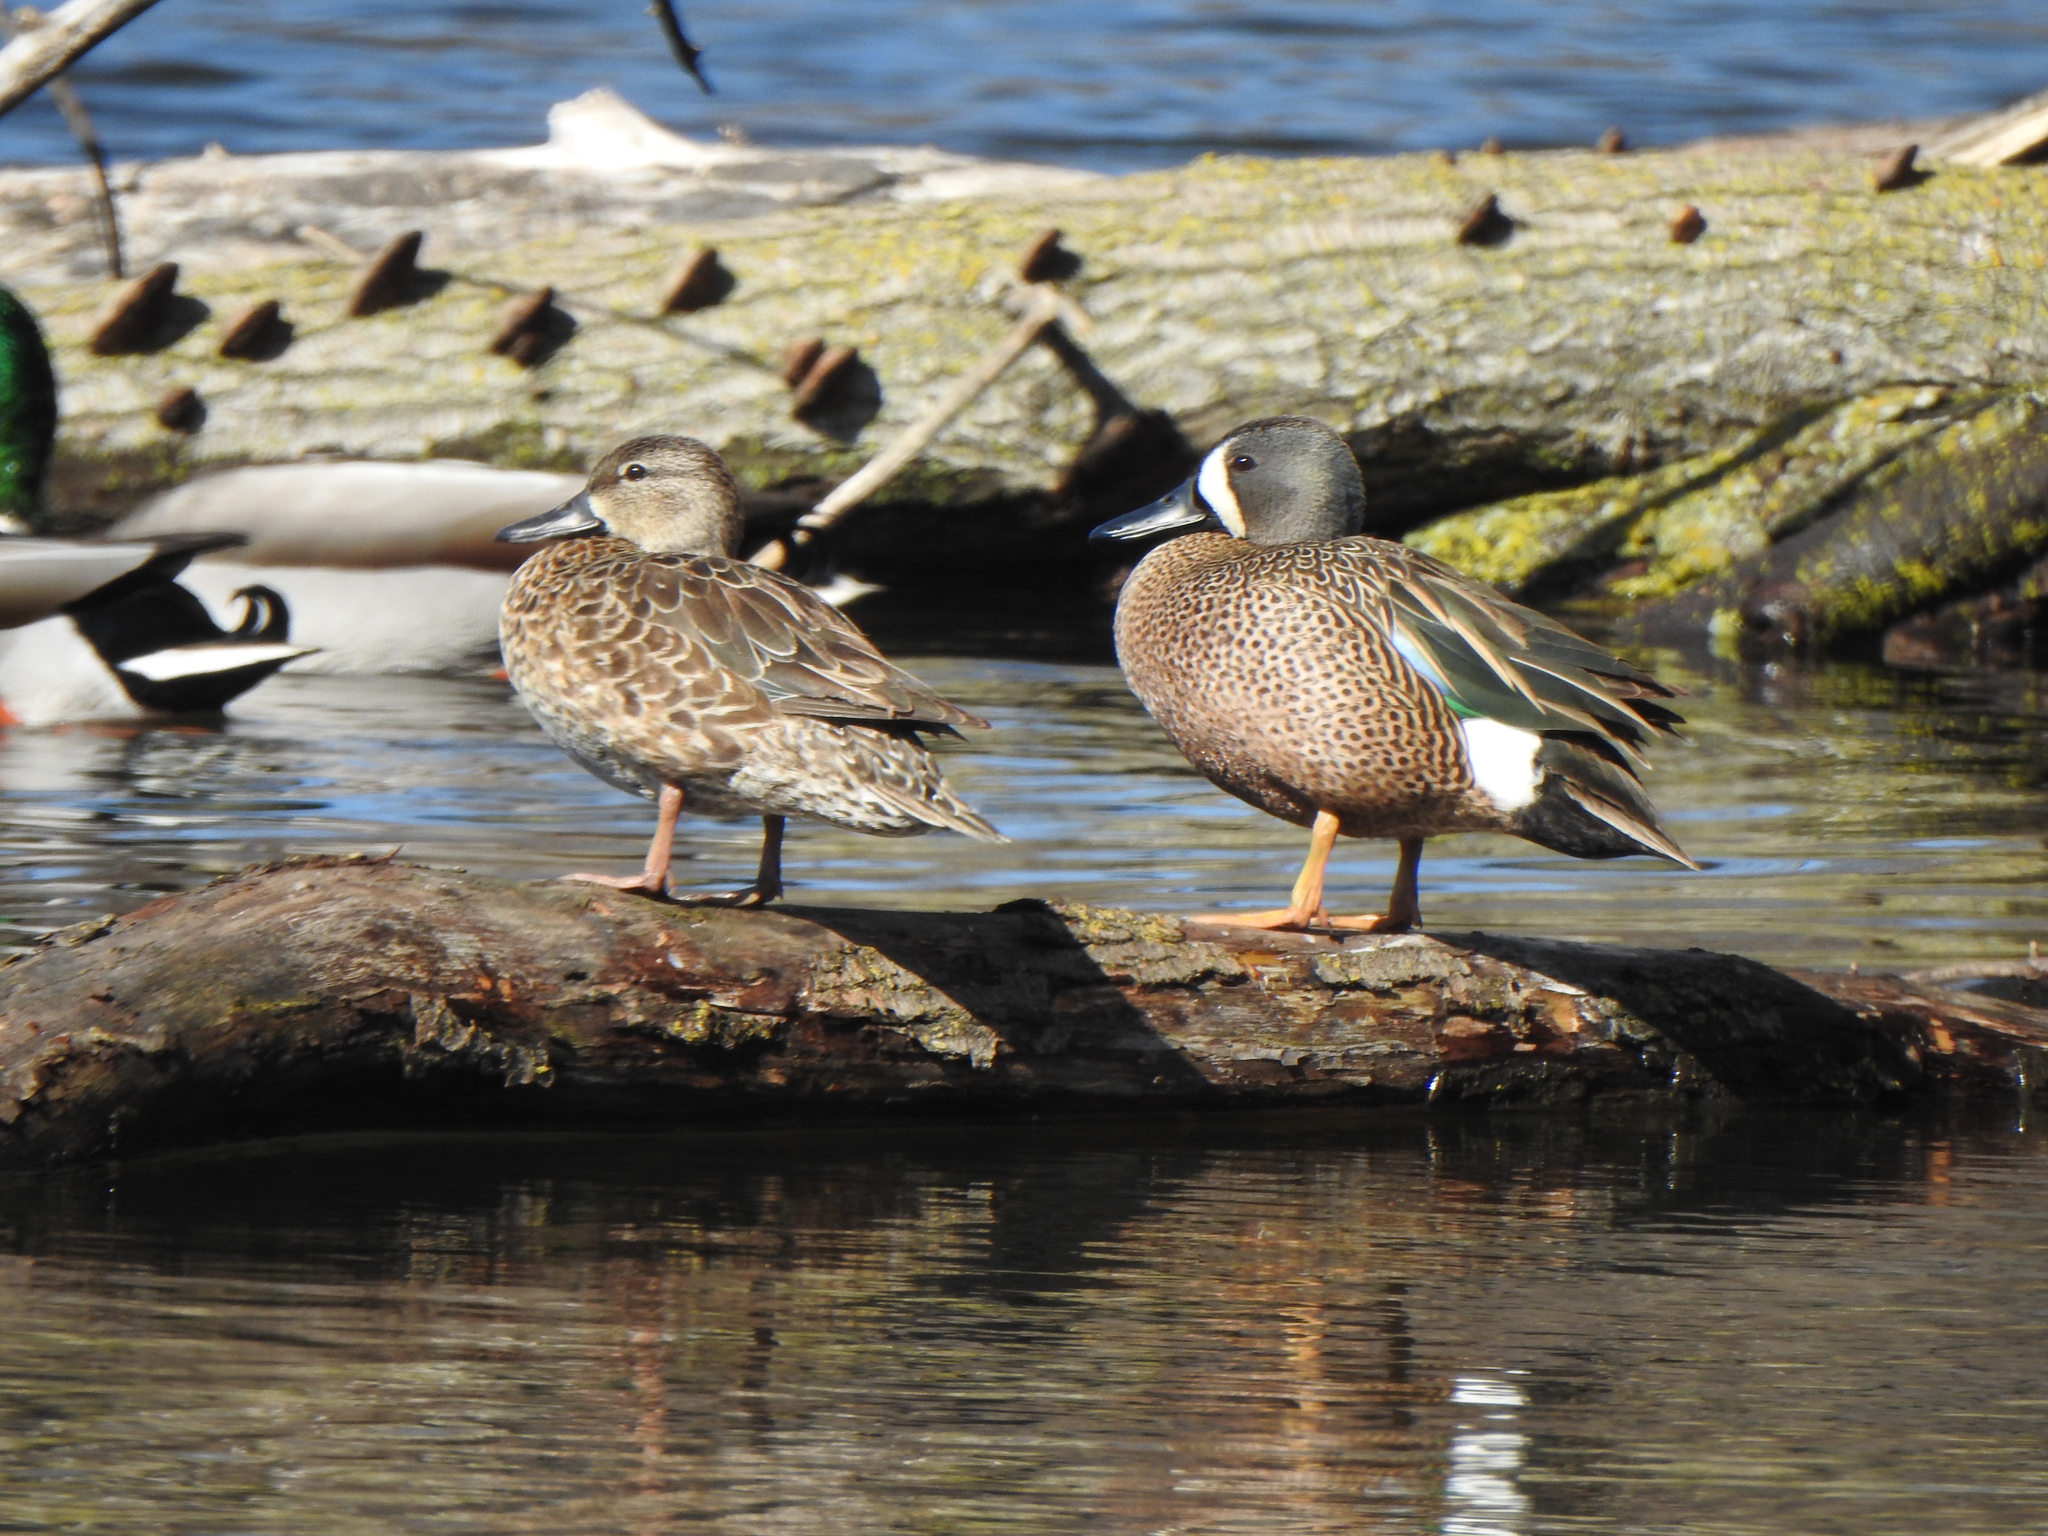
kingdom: Animalia
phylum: Chordata
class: Aves
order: Anseriformes
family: Anatidae
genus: Spatula
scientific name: Spatula discors
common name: Blue-winged teal
